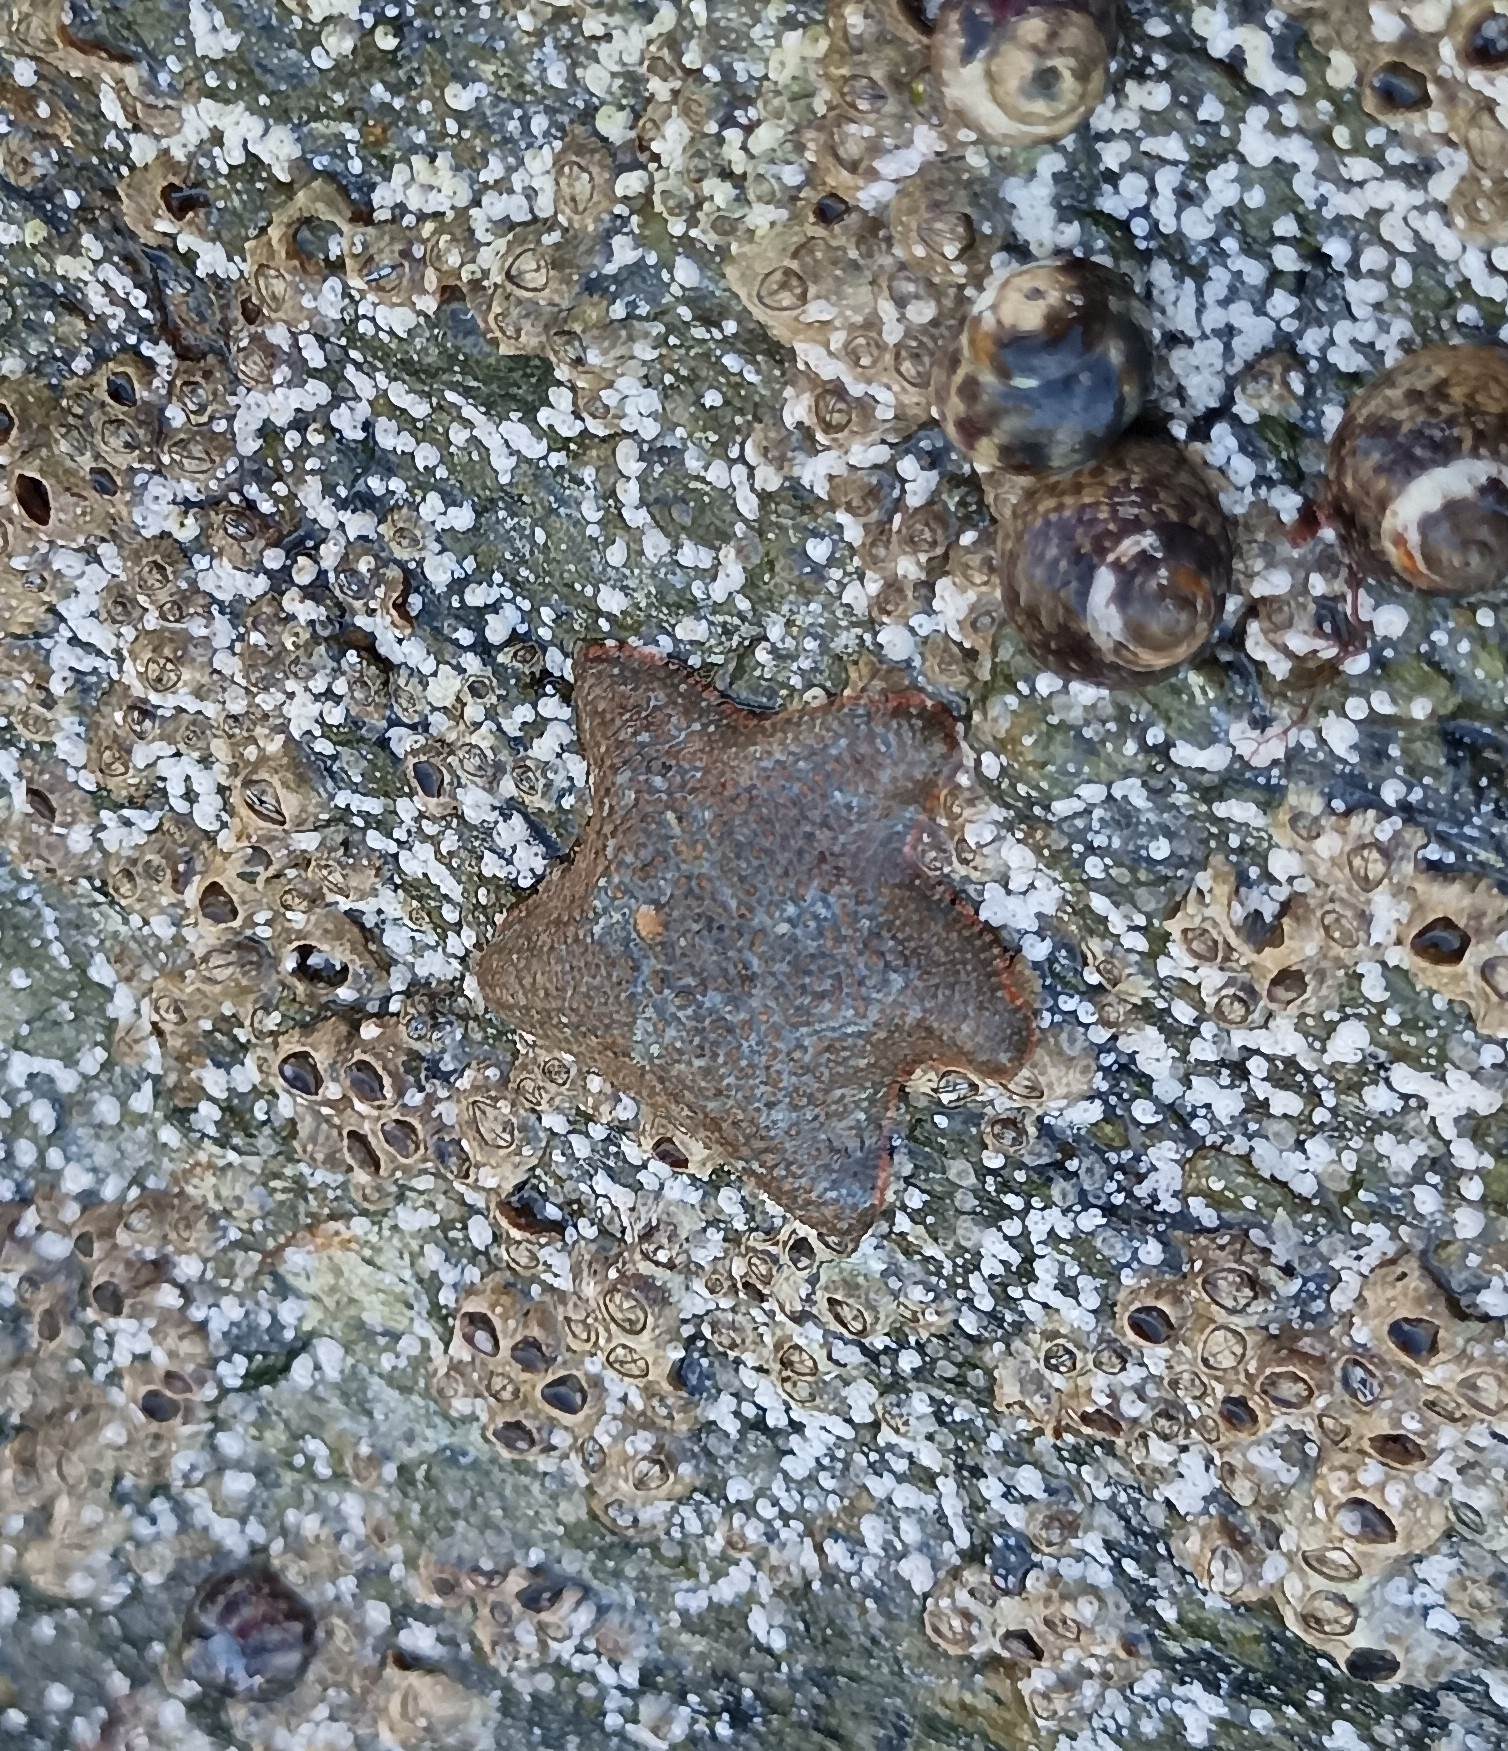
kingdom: Animalia
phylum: Echinodermata
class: Asteroidea
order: Valvatida
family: Asterinidae
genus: Asterina
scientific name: Asterina gibbosa
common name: Cushion star
